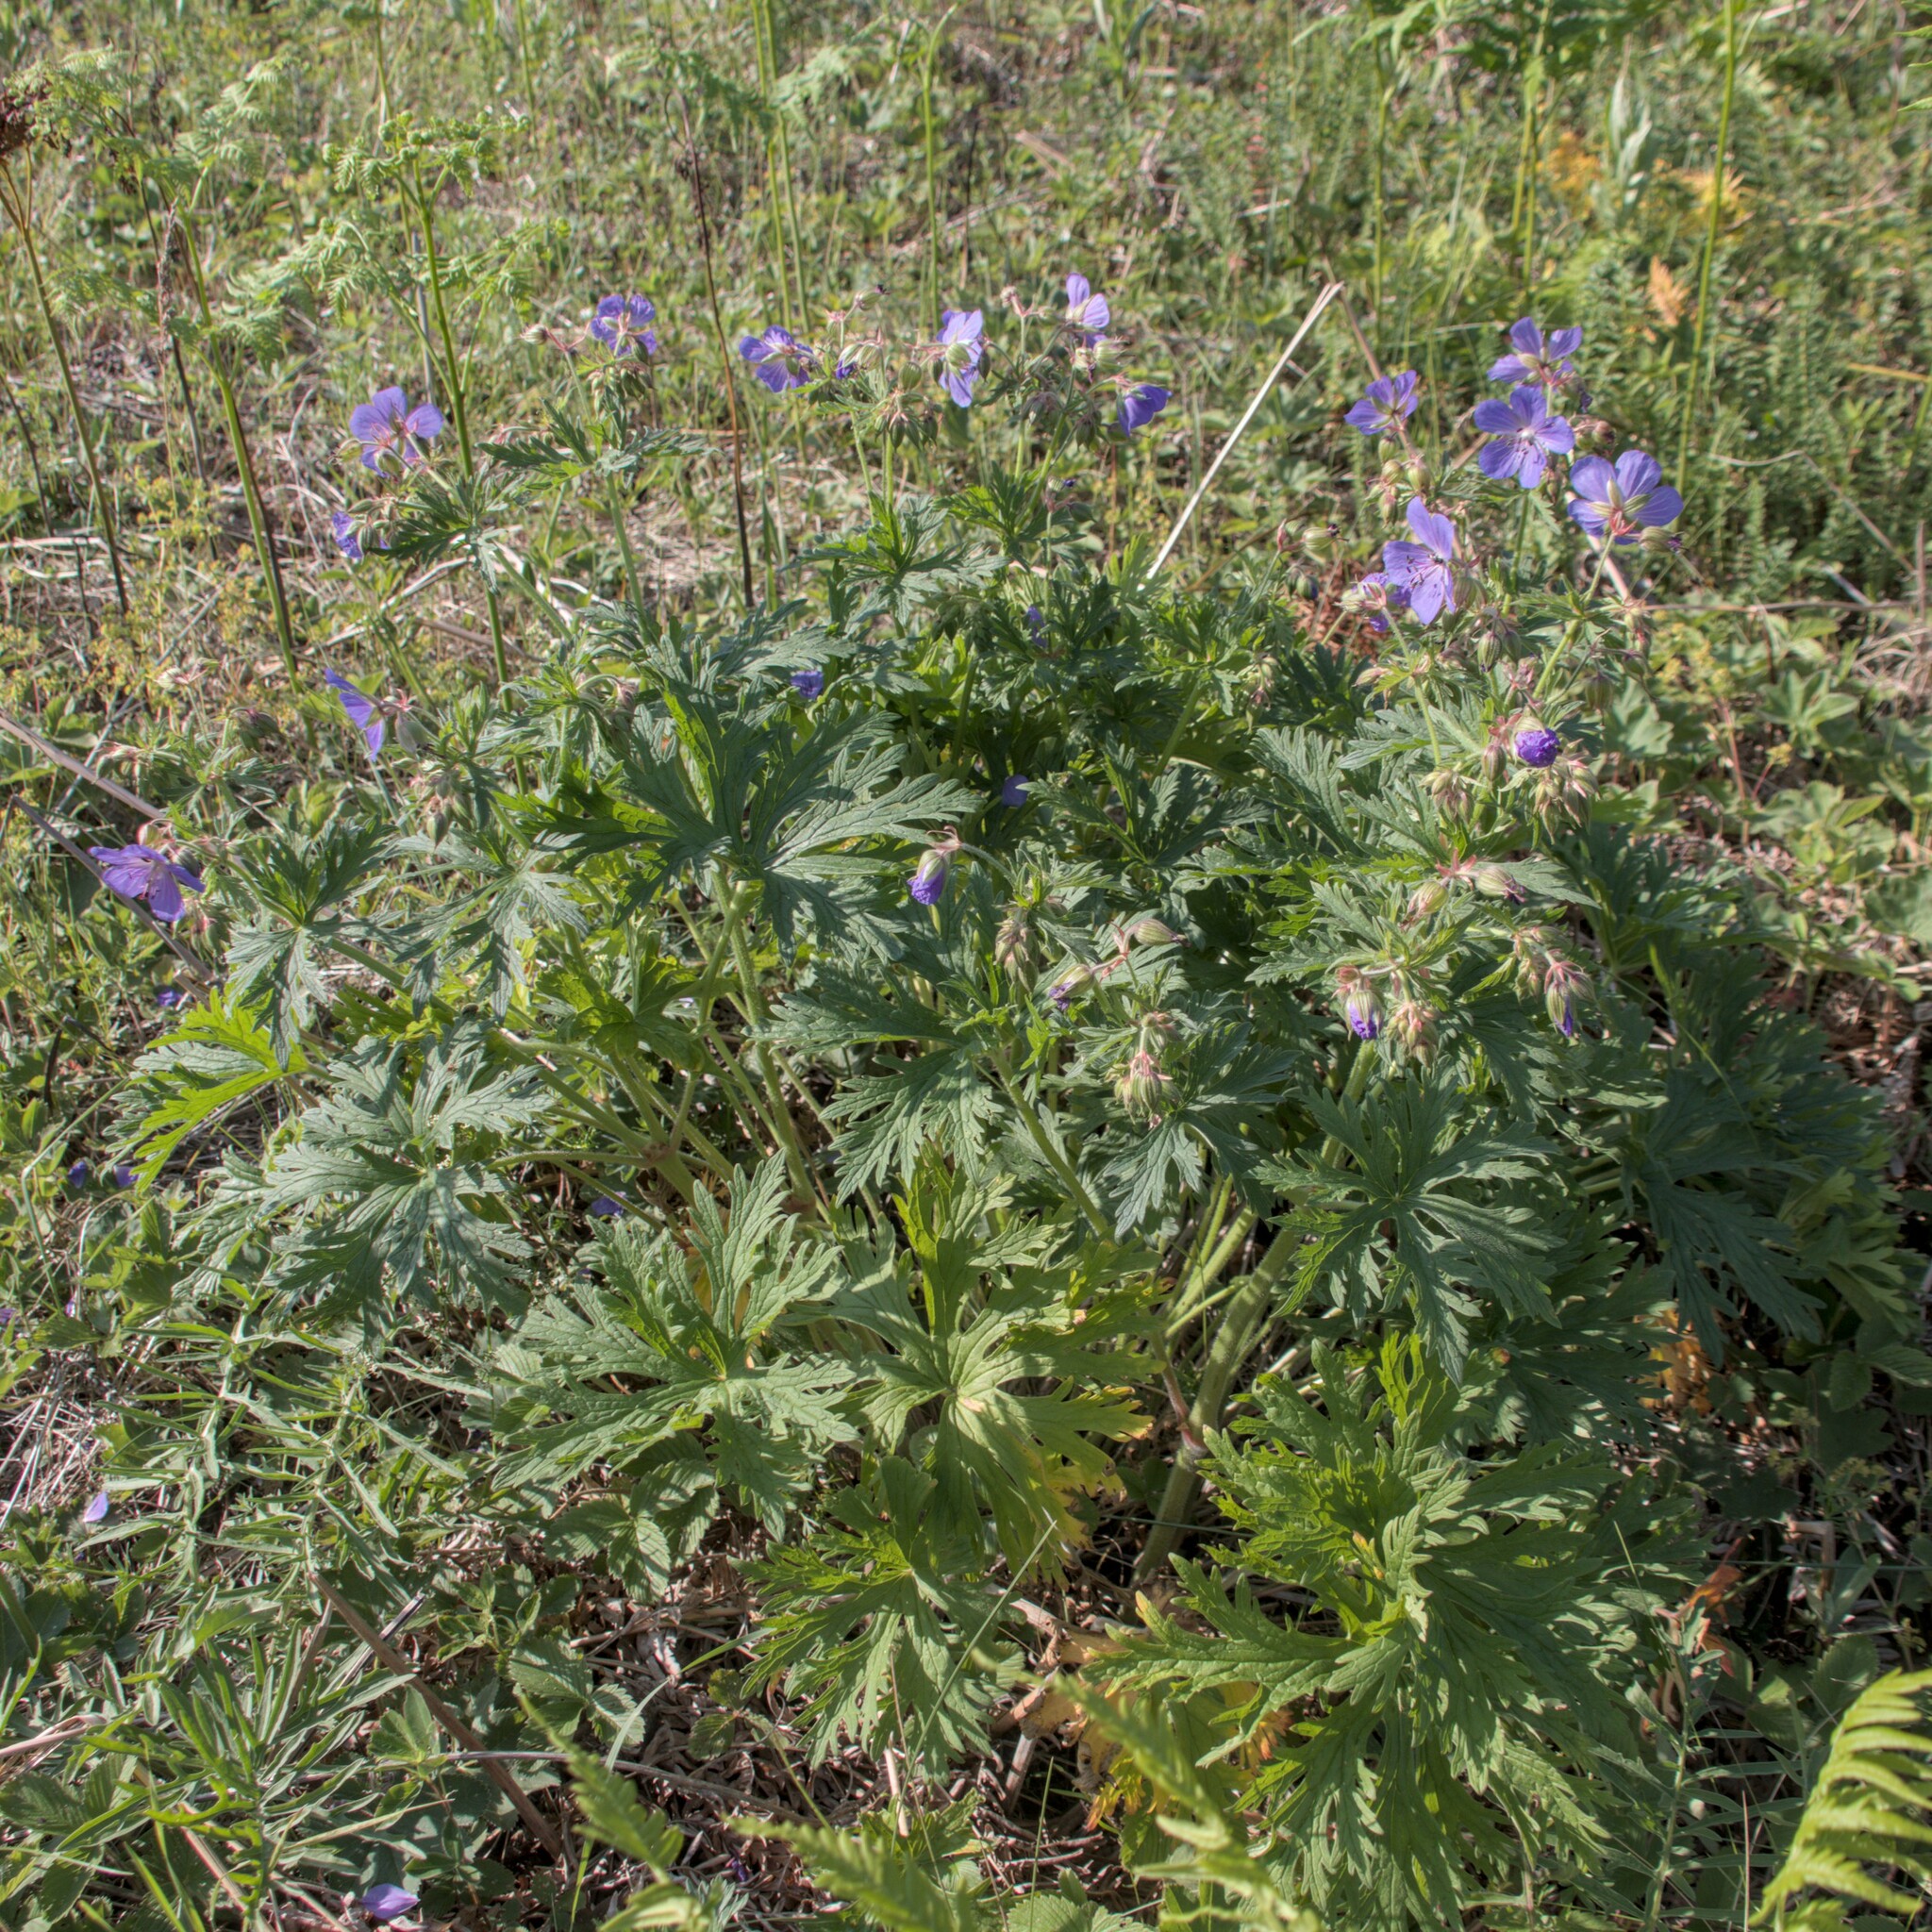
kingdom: Plantae
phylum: Tracheophyta
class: Magnoliopsida
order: Geraniales
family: Geraniaceae
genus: Geranium
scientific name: Geranium pratense
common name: Meadow crane's-bill
